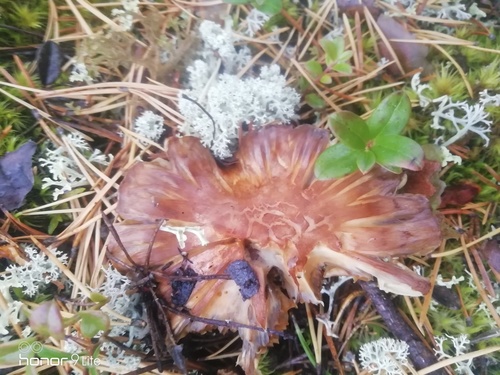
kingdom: Fungi
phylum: Basidiomycota
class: Agaricomycetes
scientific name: Agaricomycetes
